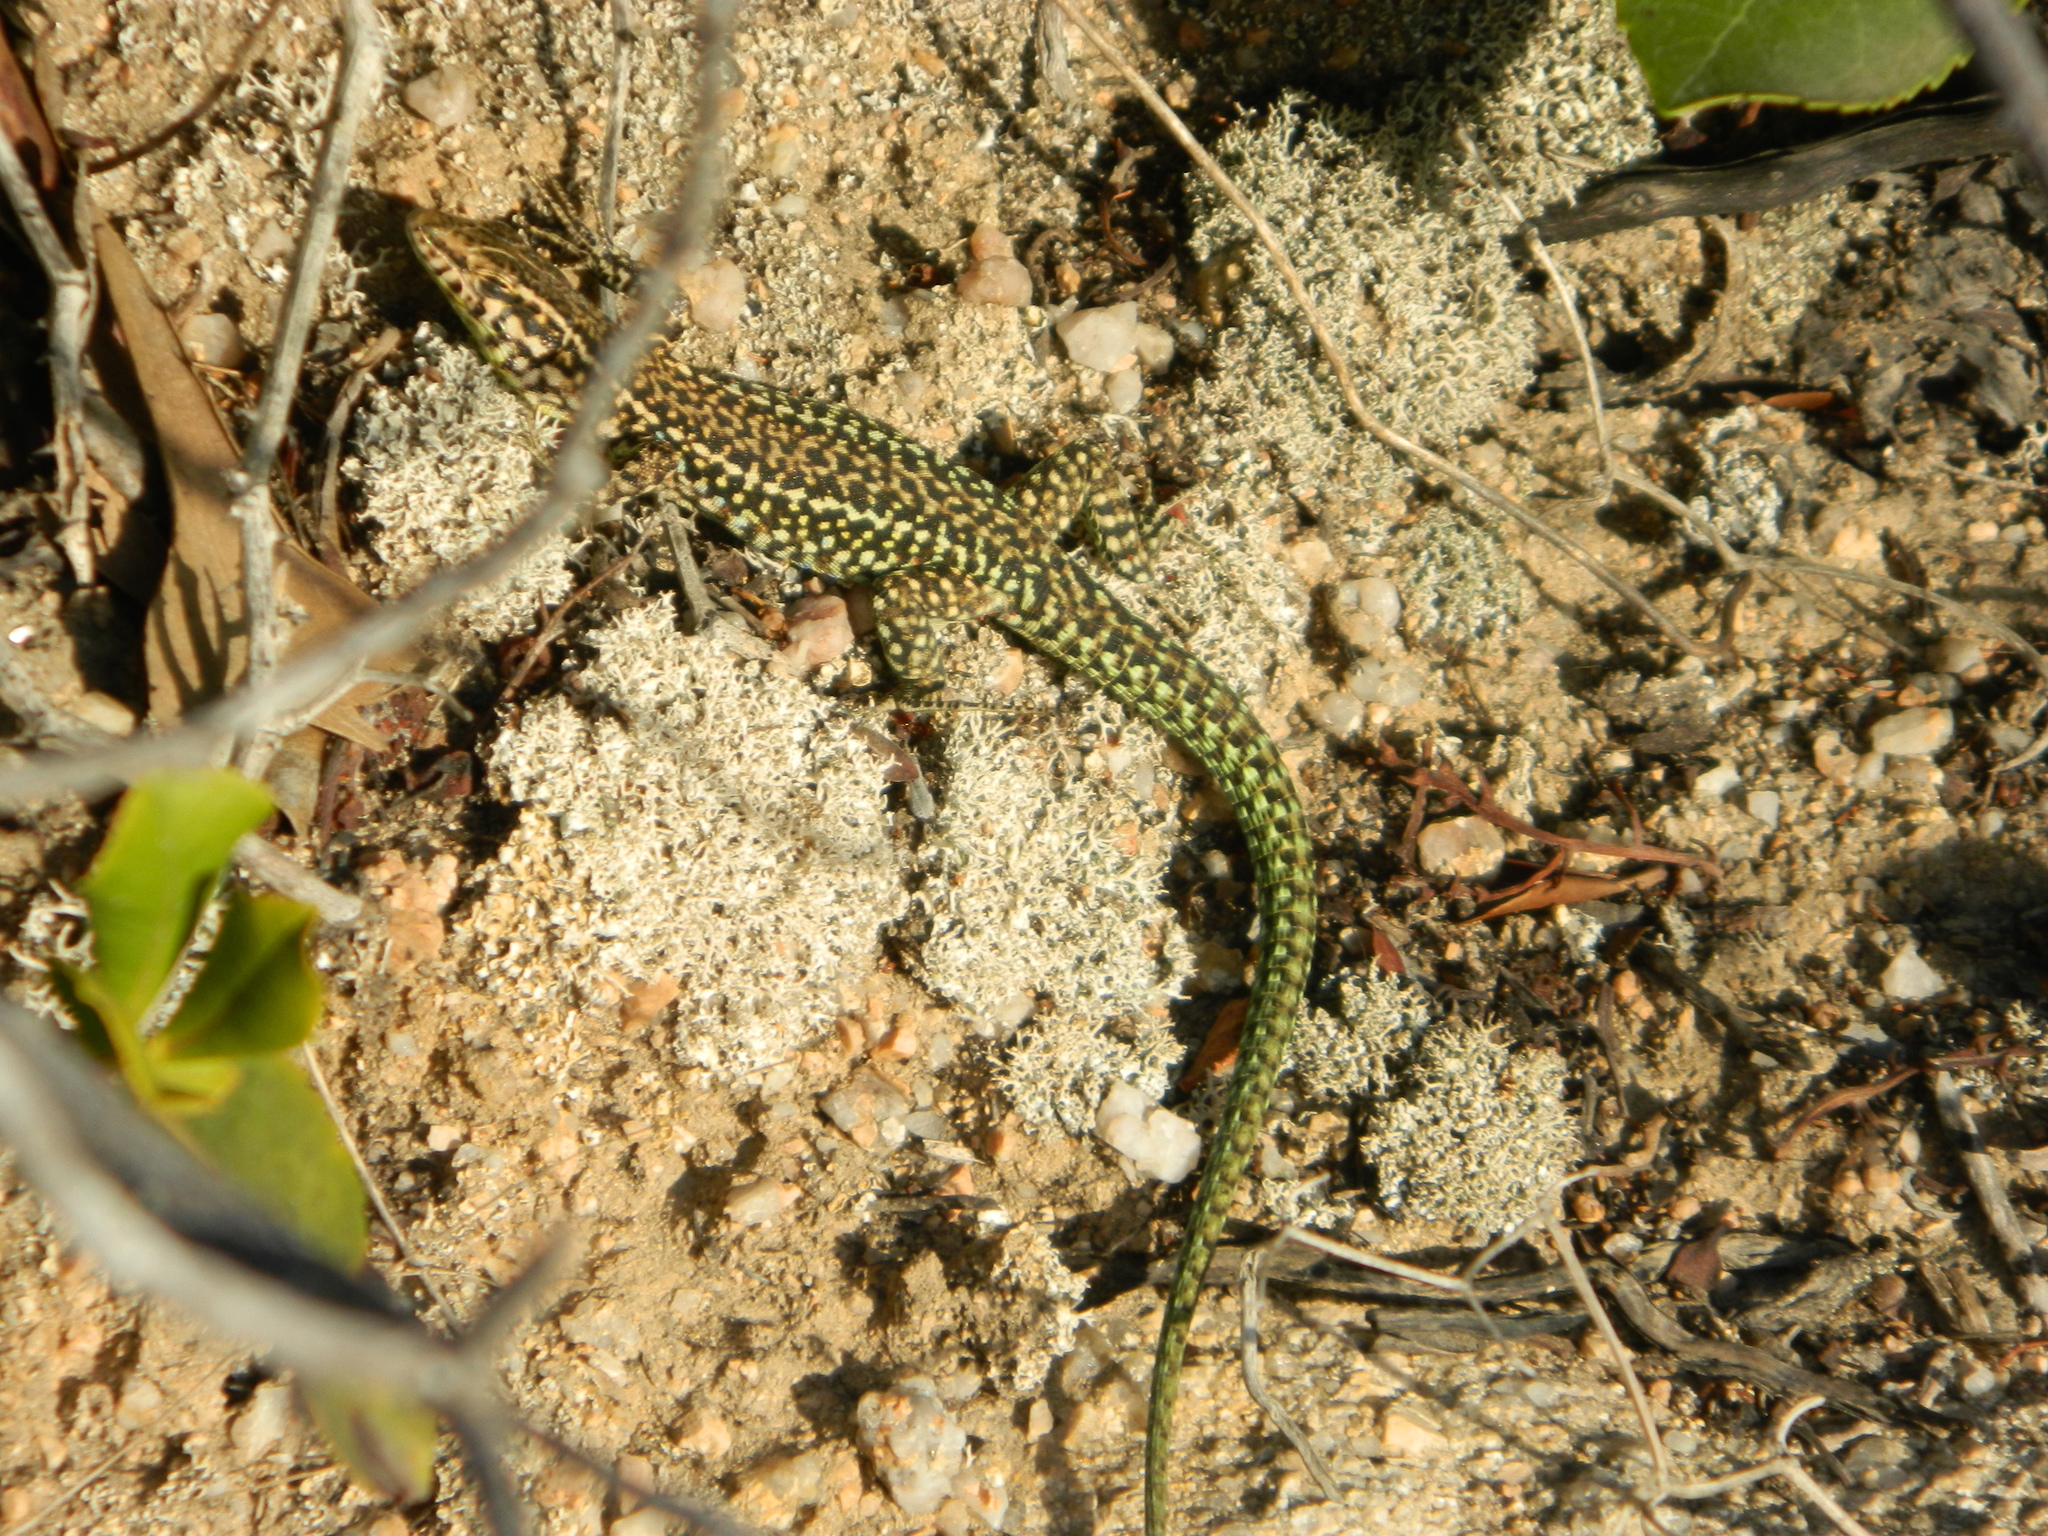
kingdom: Animalia
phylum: Chordata
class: Squamata
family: Lacertidae
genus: Podarcis
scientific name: Podarcis tiliguerta
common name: Tyrrhenian wall lizard
